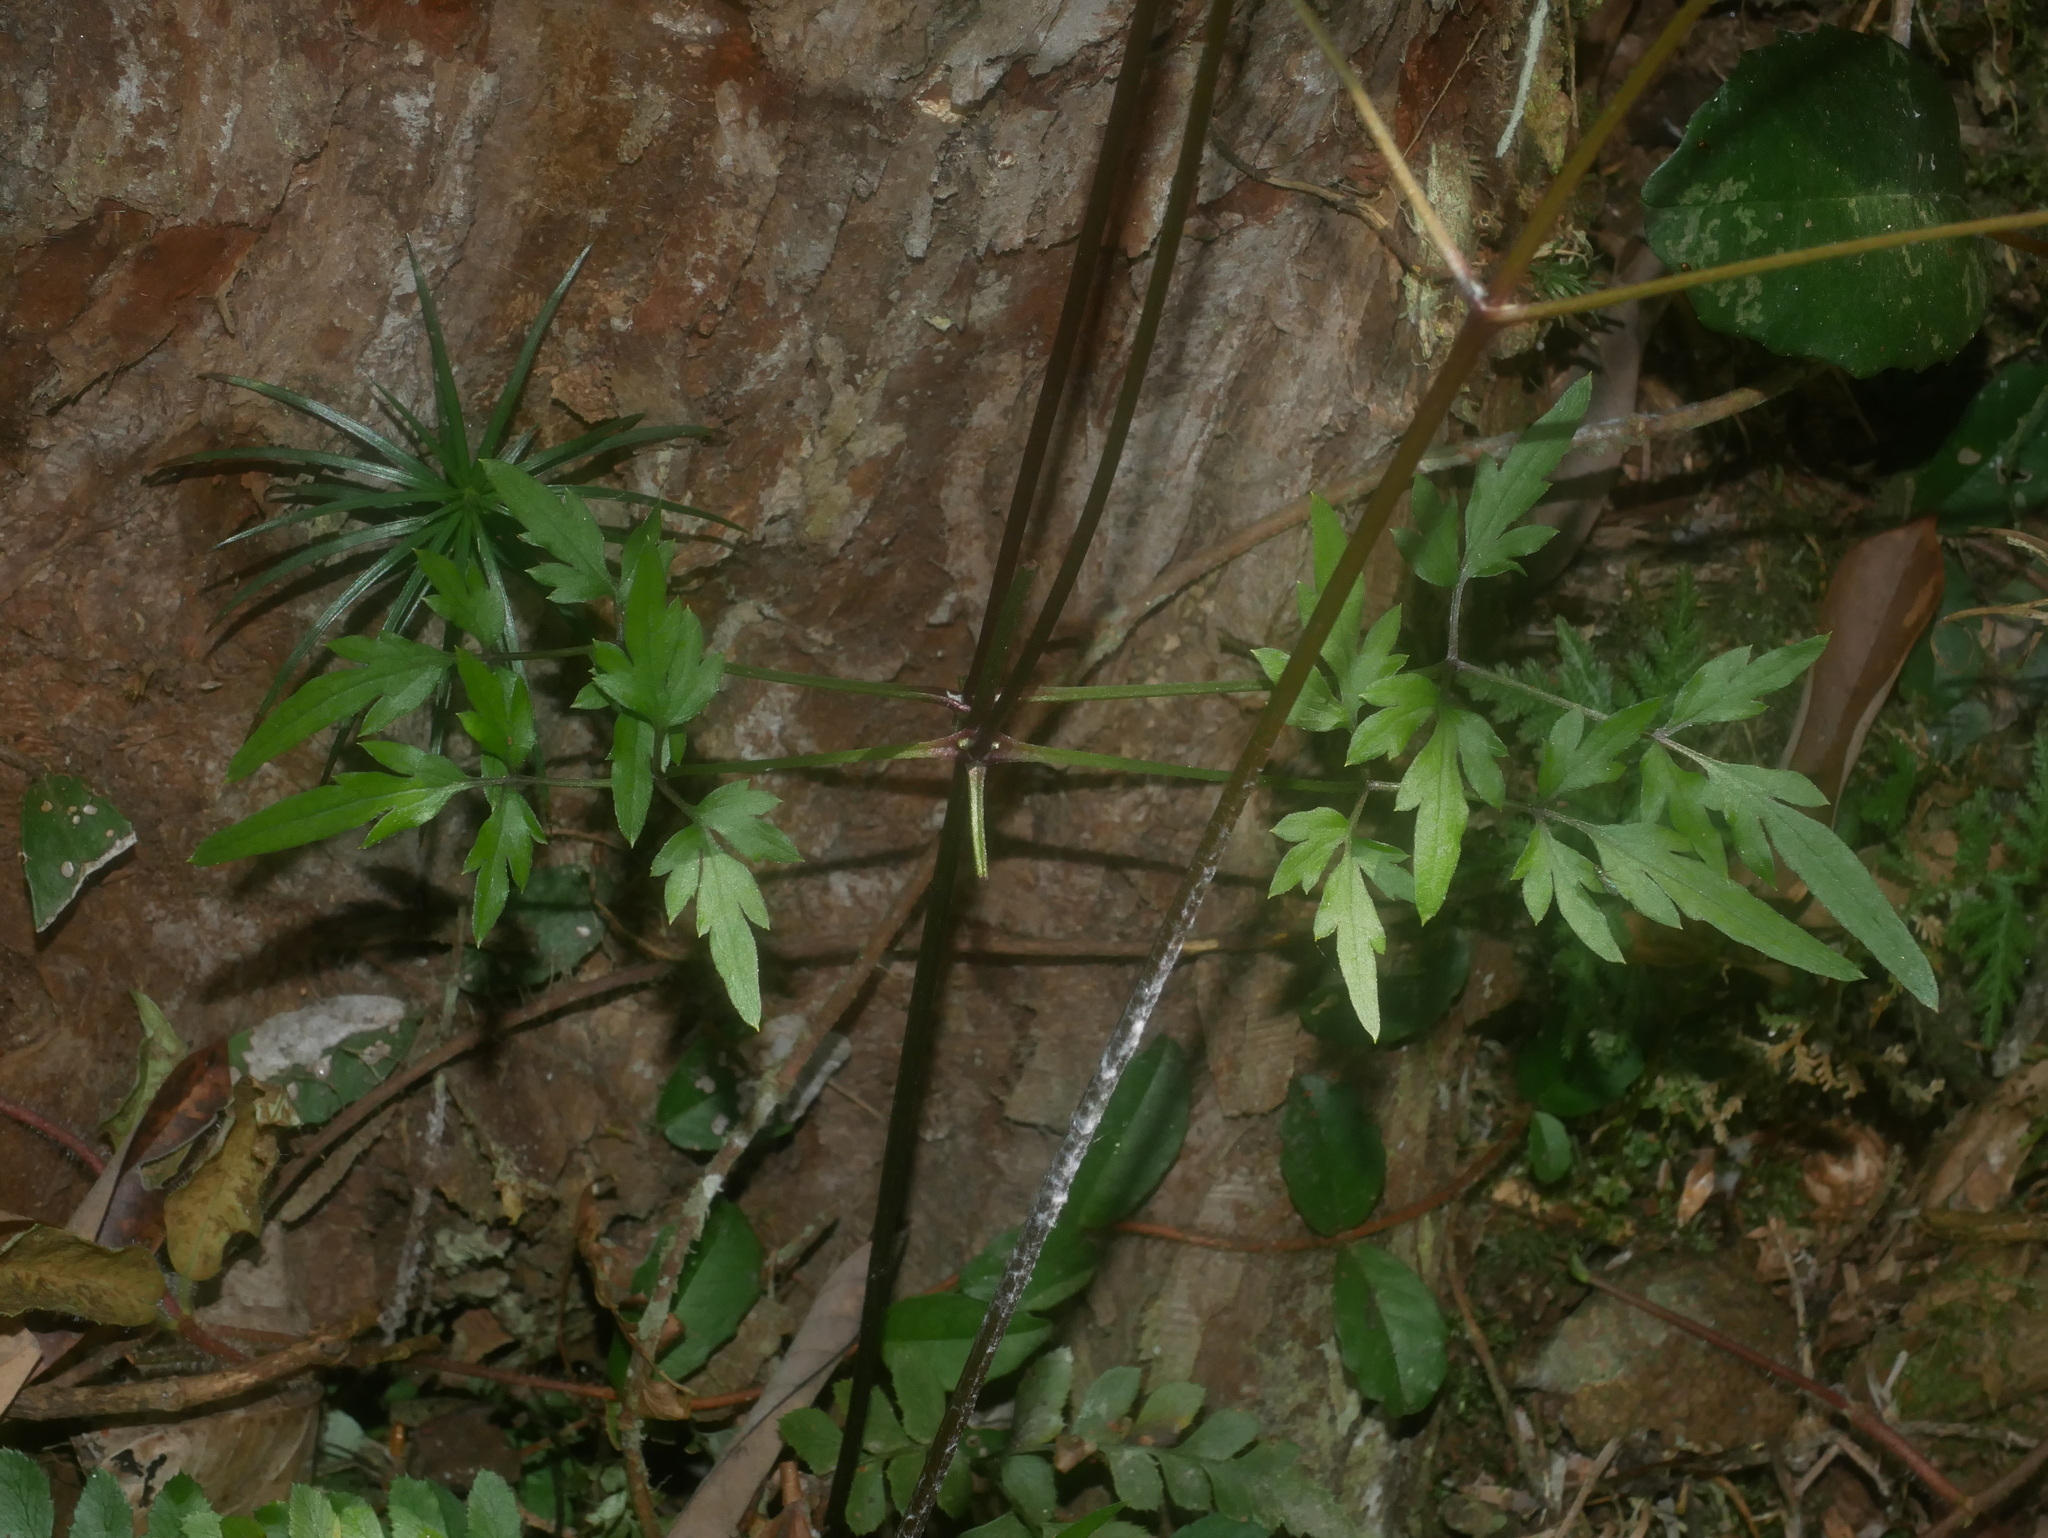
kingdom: Plantae
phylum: Tracheophyta
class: Magnoliopsida
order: Ranunculales
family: Ranunculaceae
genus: Clematis
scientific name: Clematis gouriana
